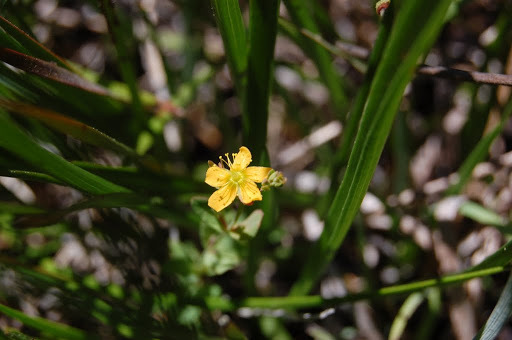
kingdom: Plantae
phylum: Tracheophyta
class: Magnoliopsida
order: Malpighiales
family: Hypericaceae
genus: Hypericum
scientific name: Hypericum anagalloides
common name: Bog st. john's-wort
